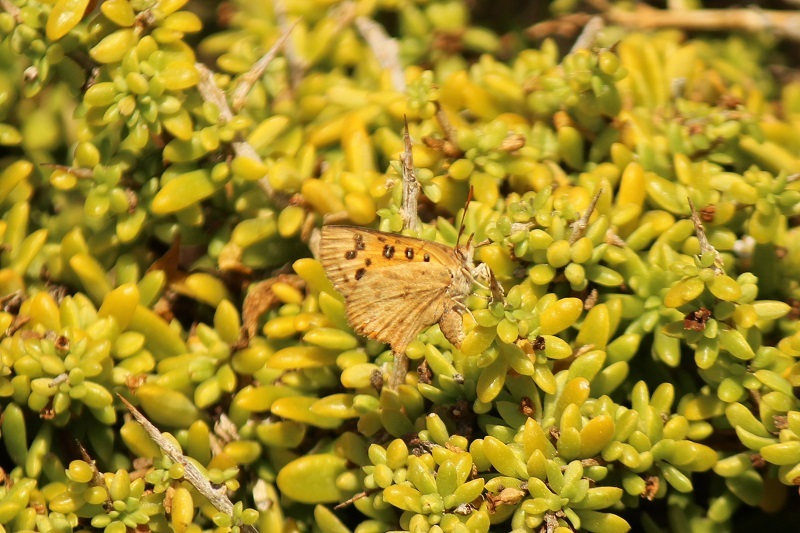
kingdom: Animalia
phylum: Arthropoda
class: Insecta
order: Lepidoptera
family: Lycaenidae
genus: Chrysoritis
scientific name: Chrysoritis pan
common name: Pan opal
